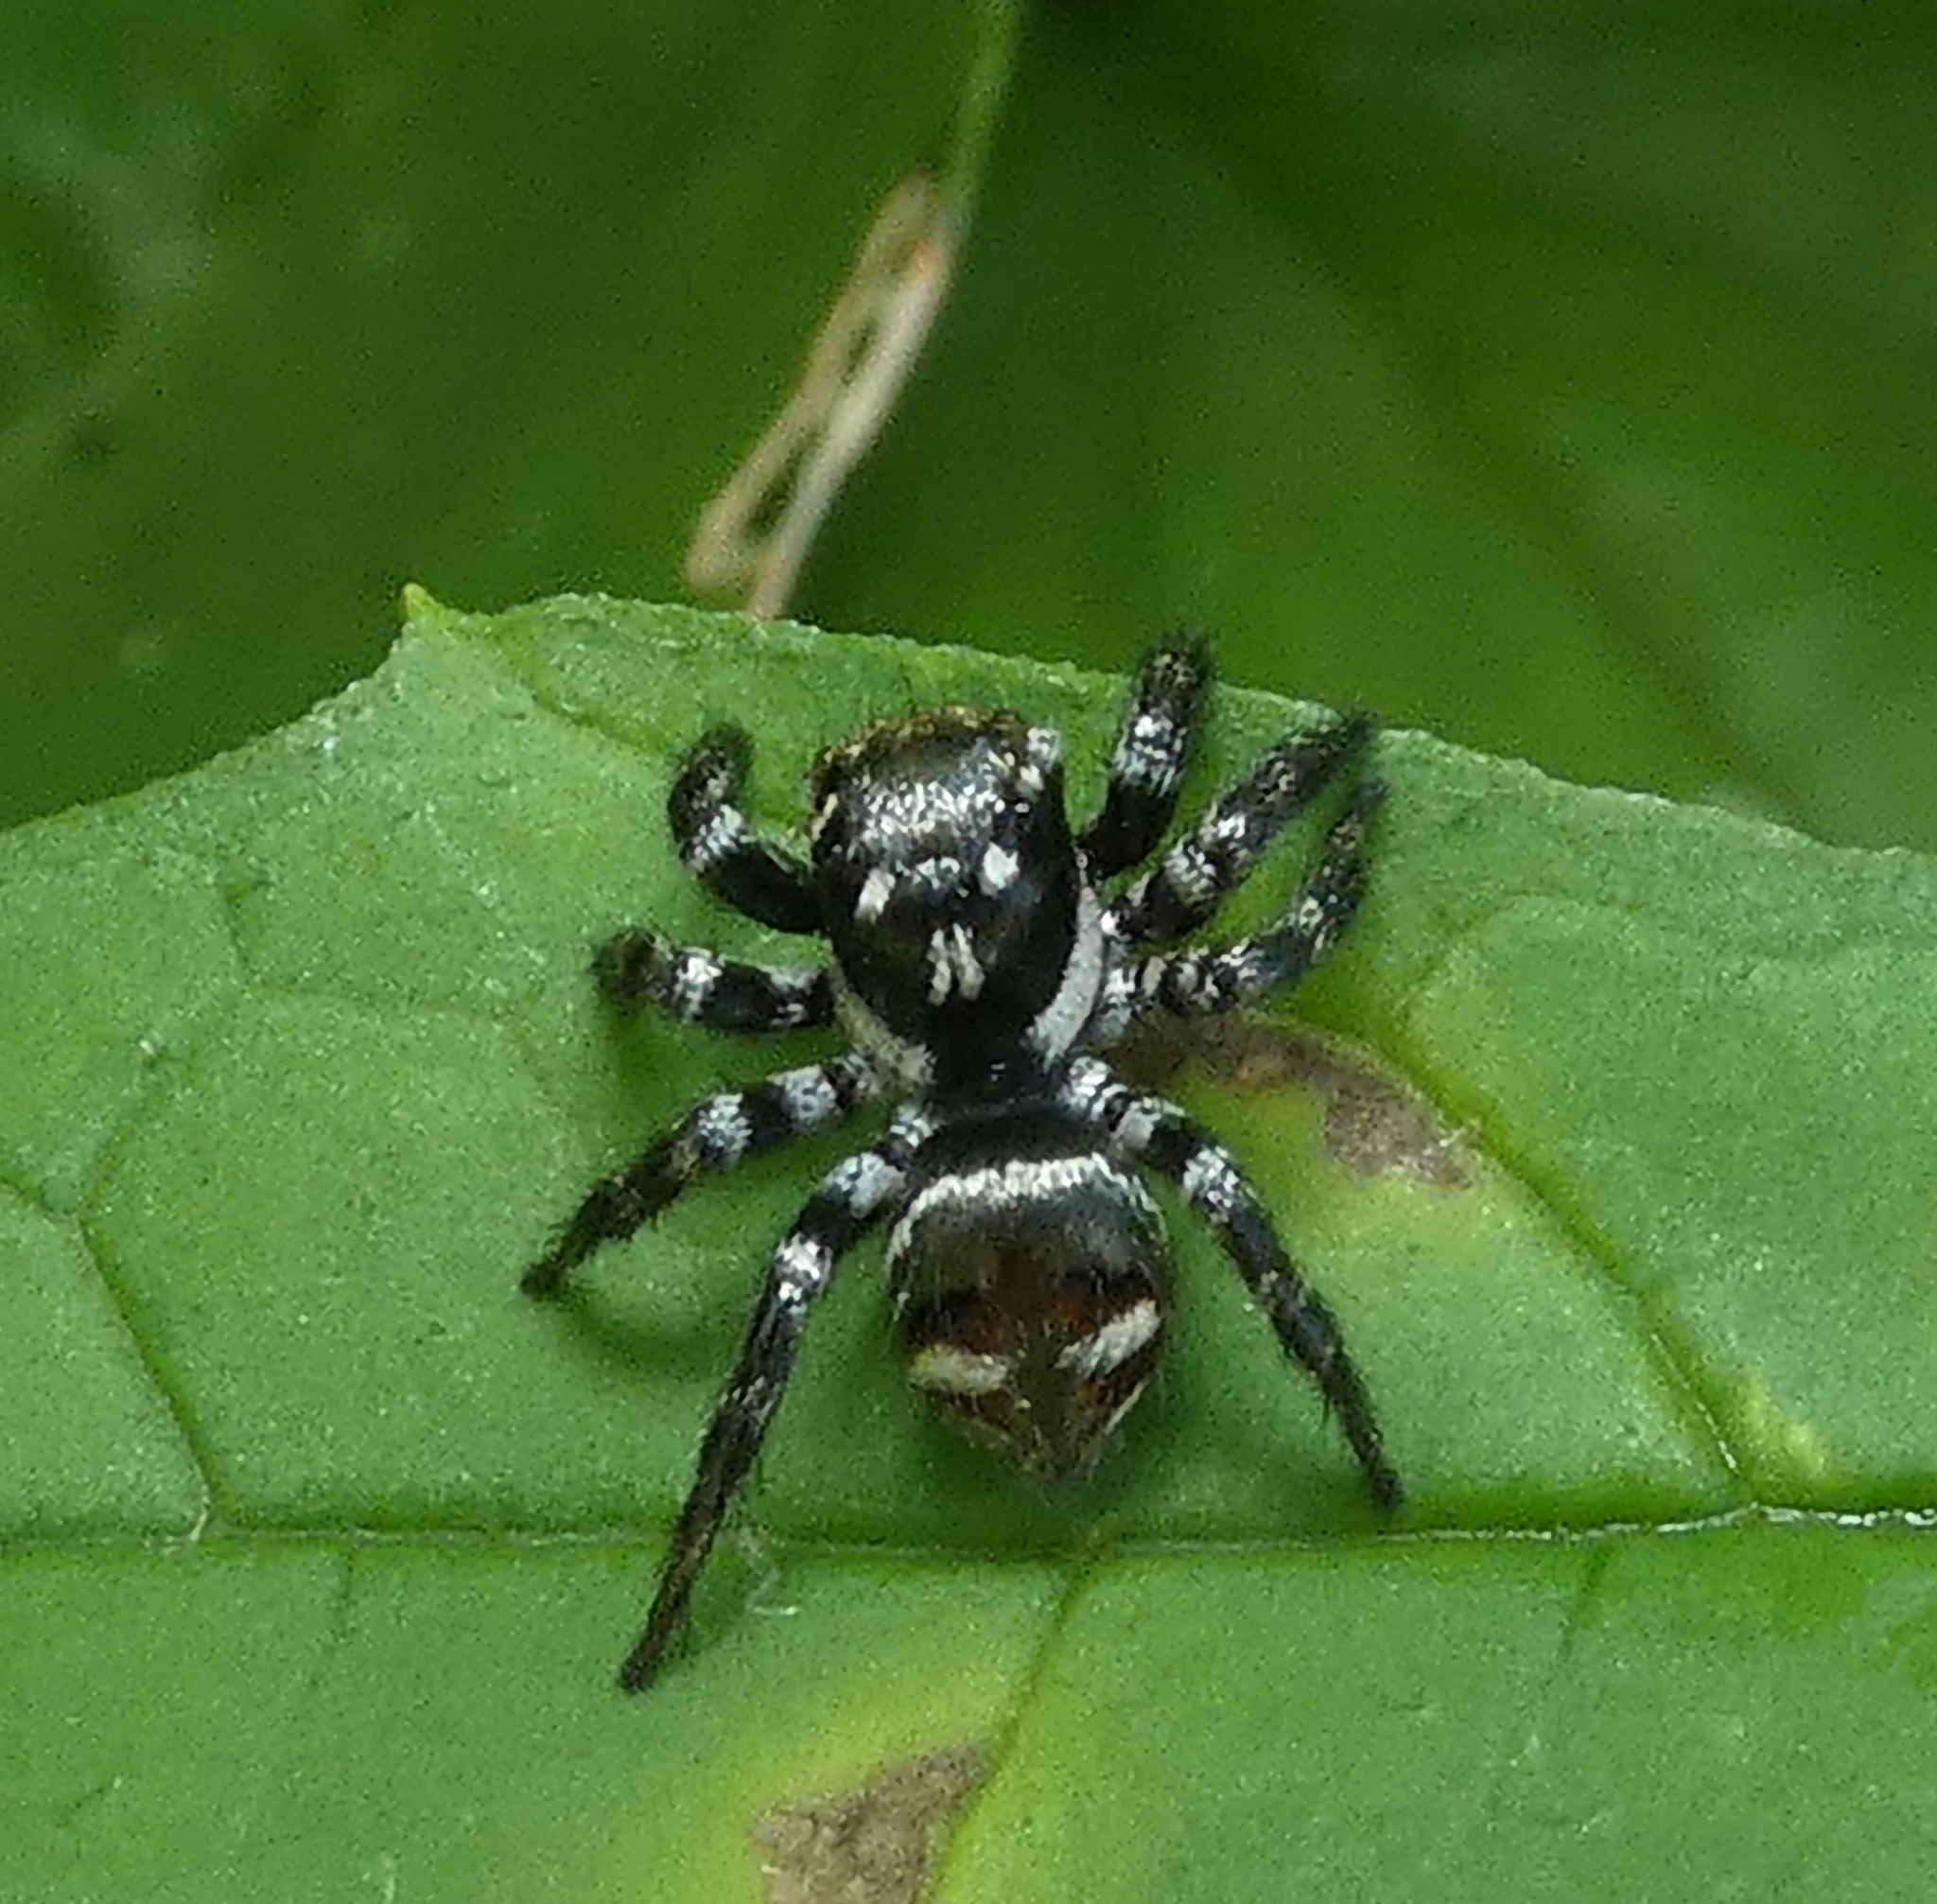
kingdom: Animalia
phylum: Arthropoda
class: Arachnida
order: Araneae
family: Salticidae
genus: Corythalia
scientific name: Corythalia spiralis
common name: Jumping spiders
